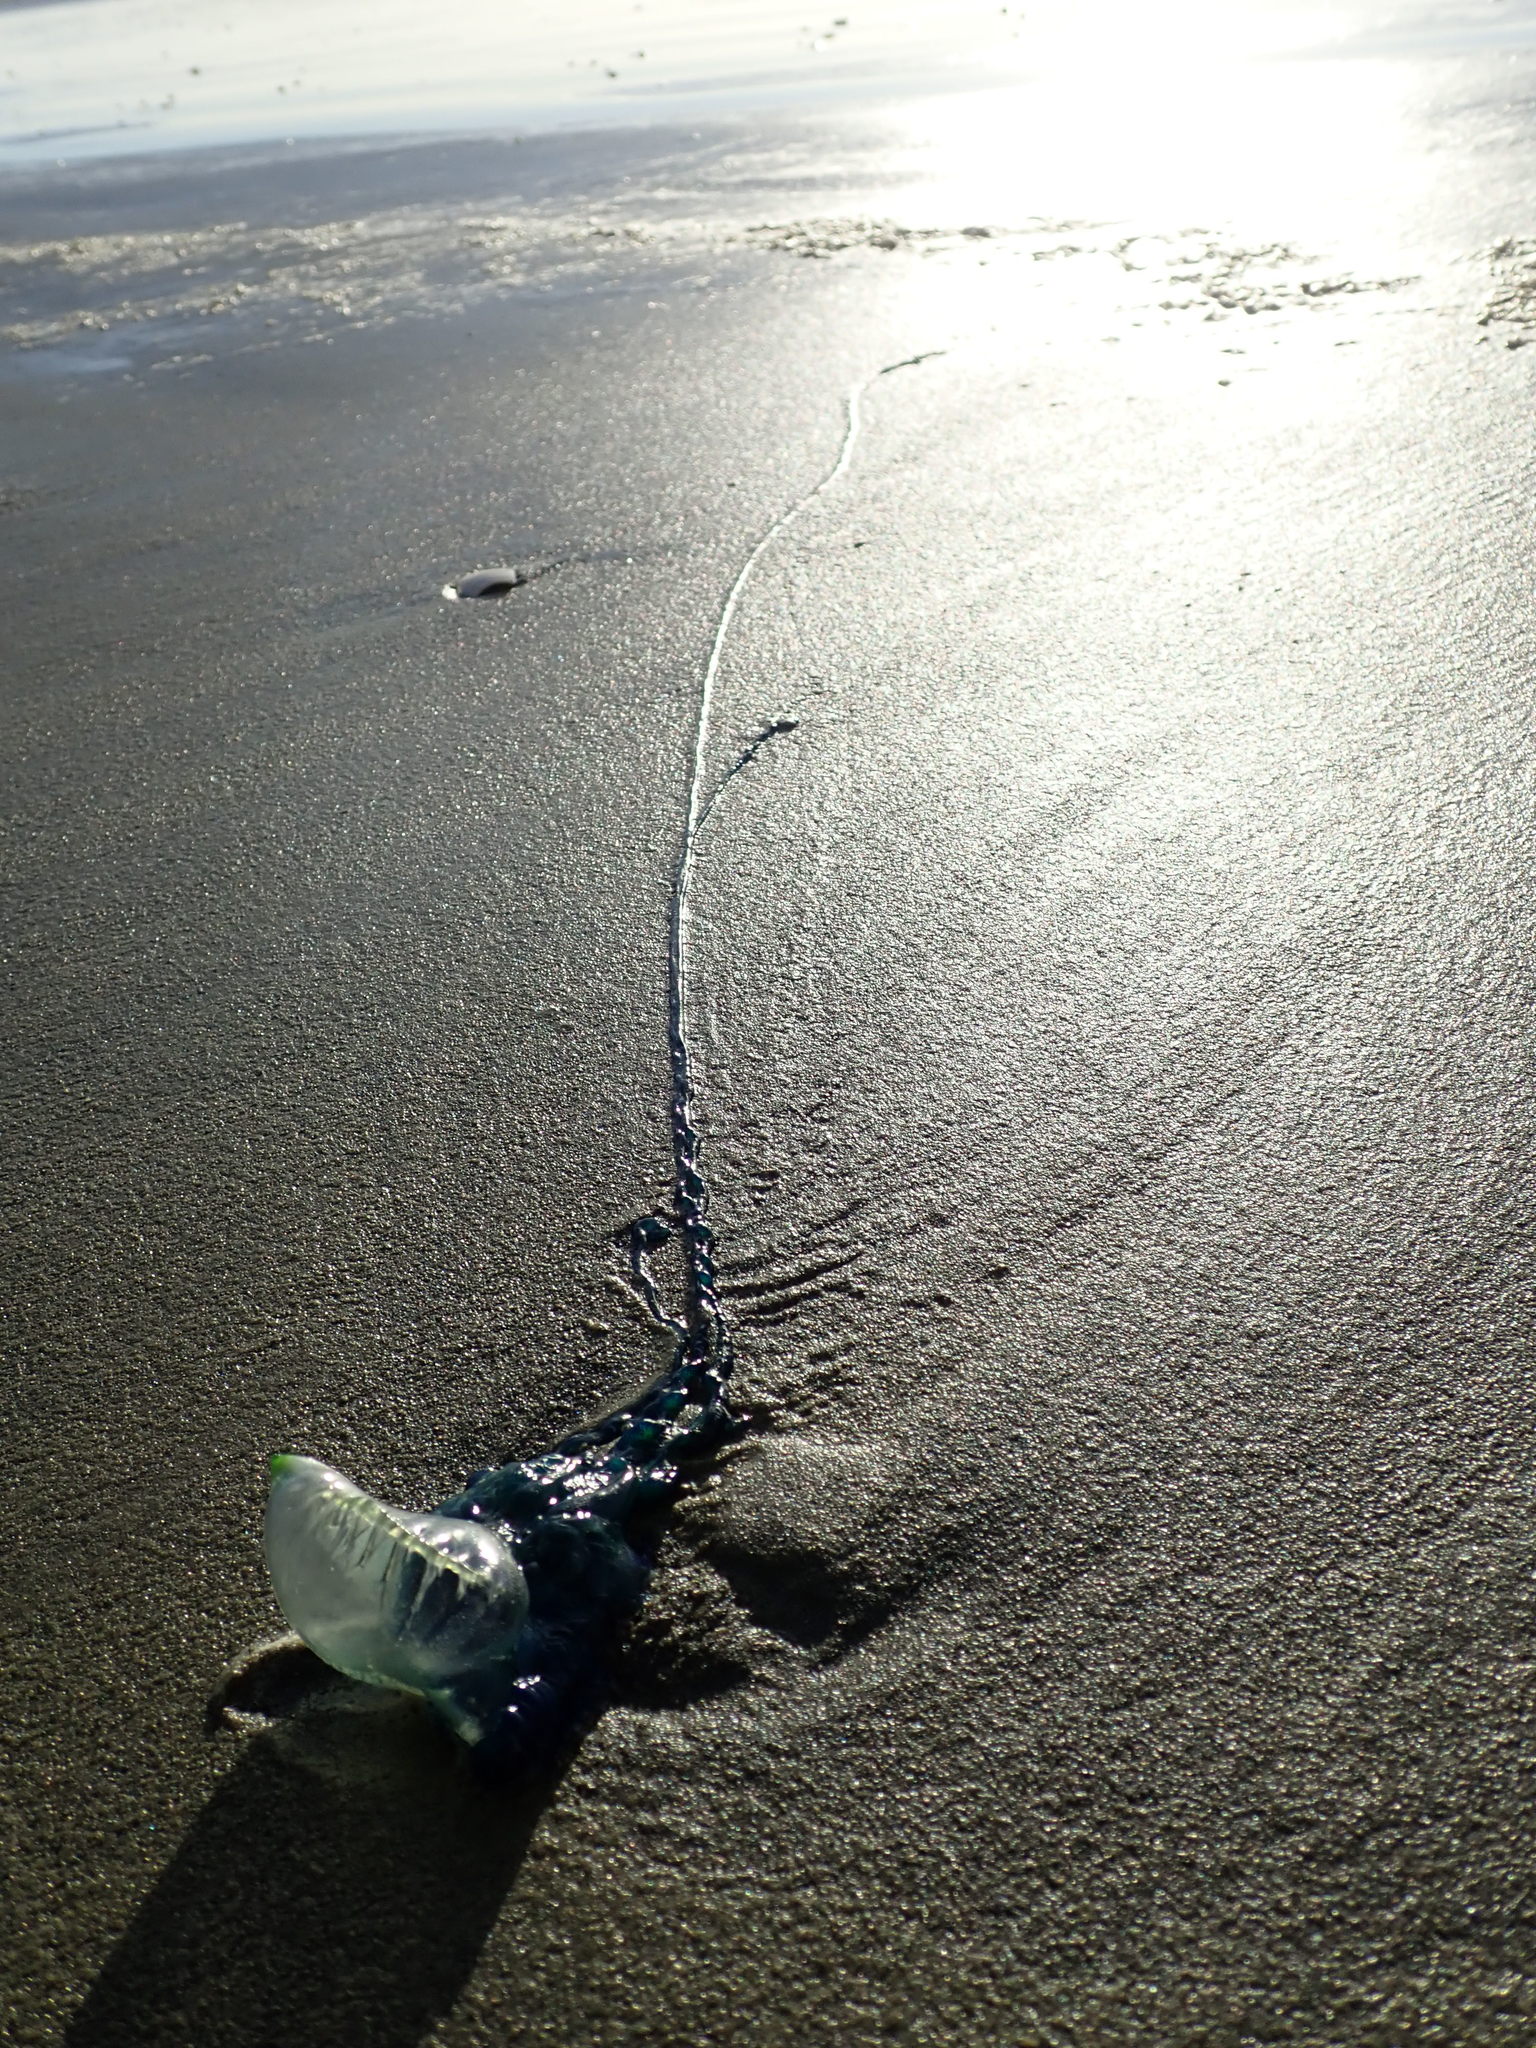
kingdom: Animalia
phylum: Cnidaria
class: Hydrozoa
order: Siphonophorae
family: Physaliidae
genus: Physalia
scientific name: Physalia physalis
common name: Portuguese man-of-war
